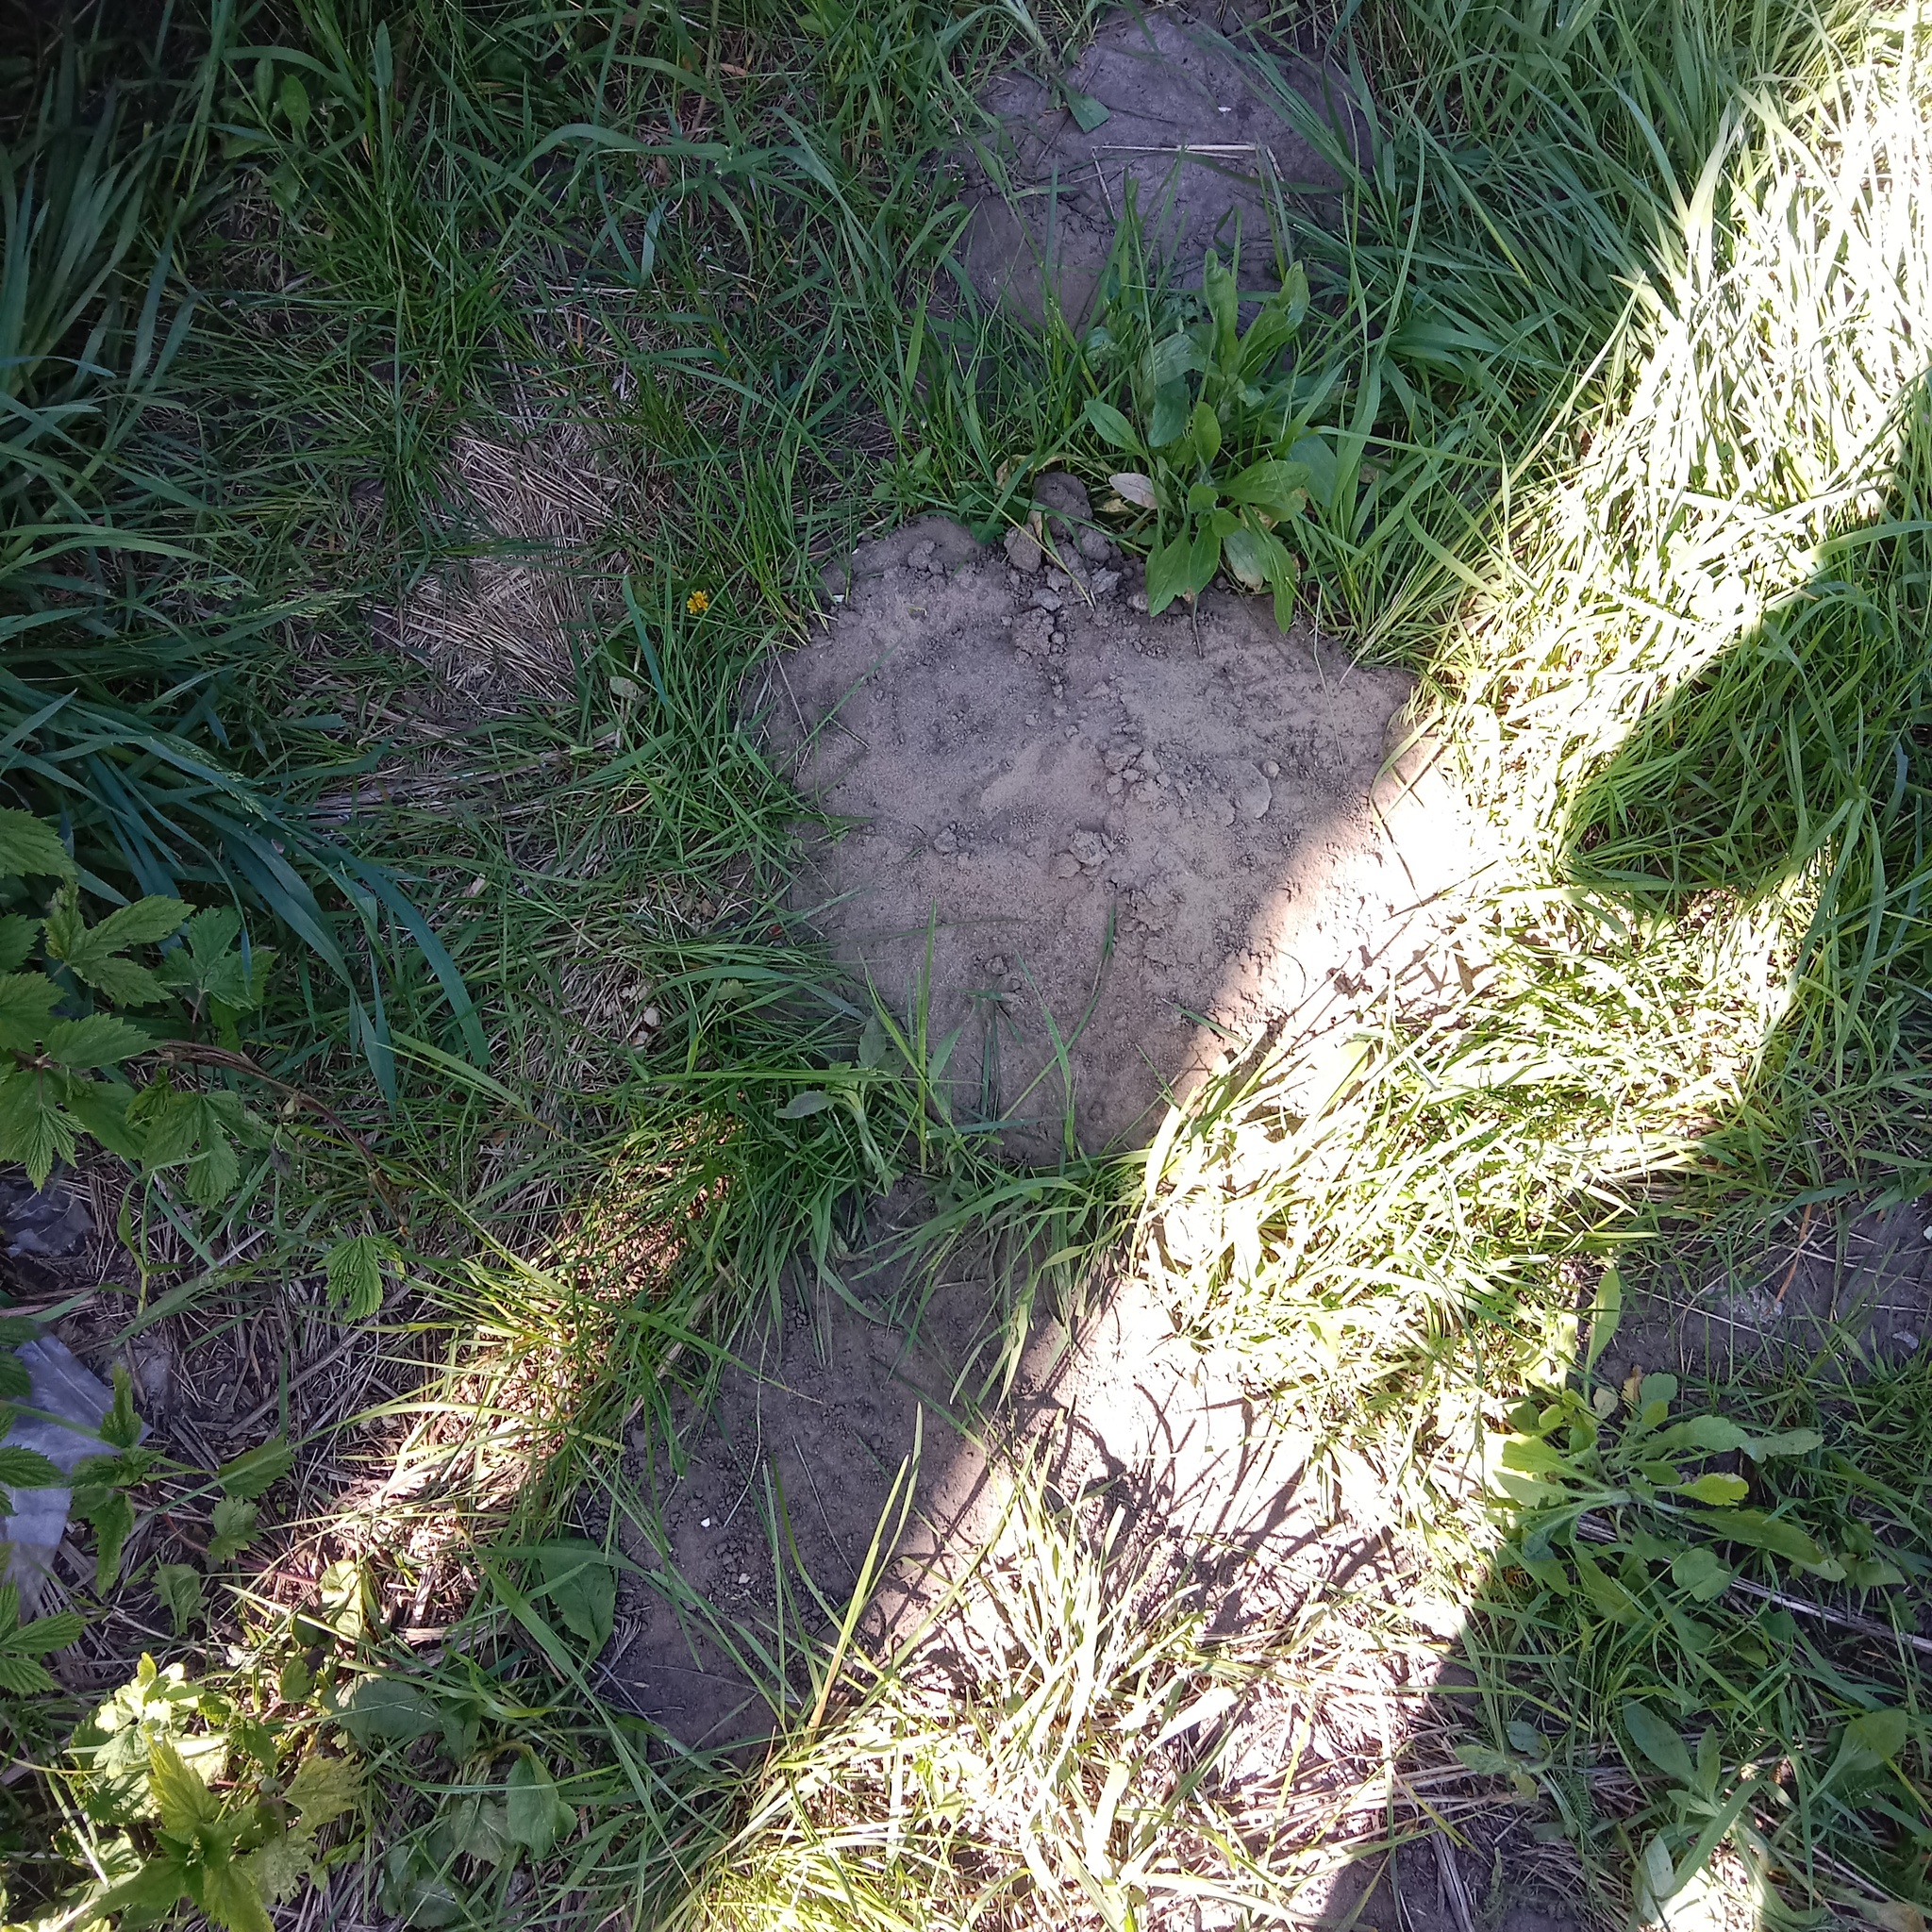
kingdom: Animalia
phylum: Chordata
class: Mammalia
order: Soricomorpha
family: Talpidae
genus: Talpa
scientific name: Talpa europaea
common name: European mole
